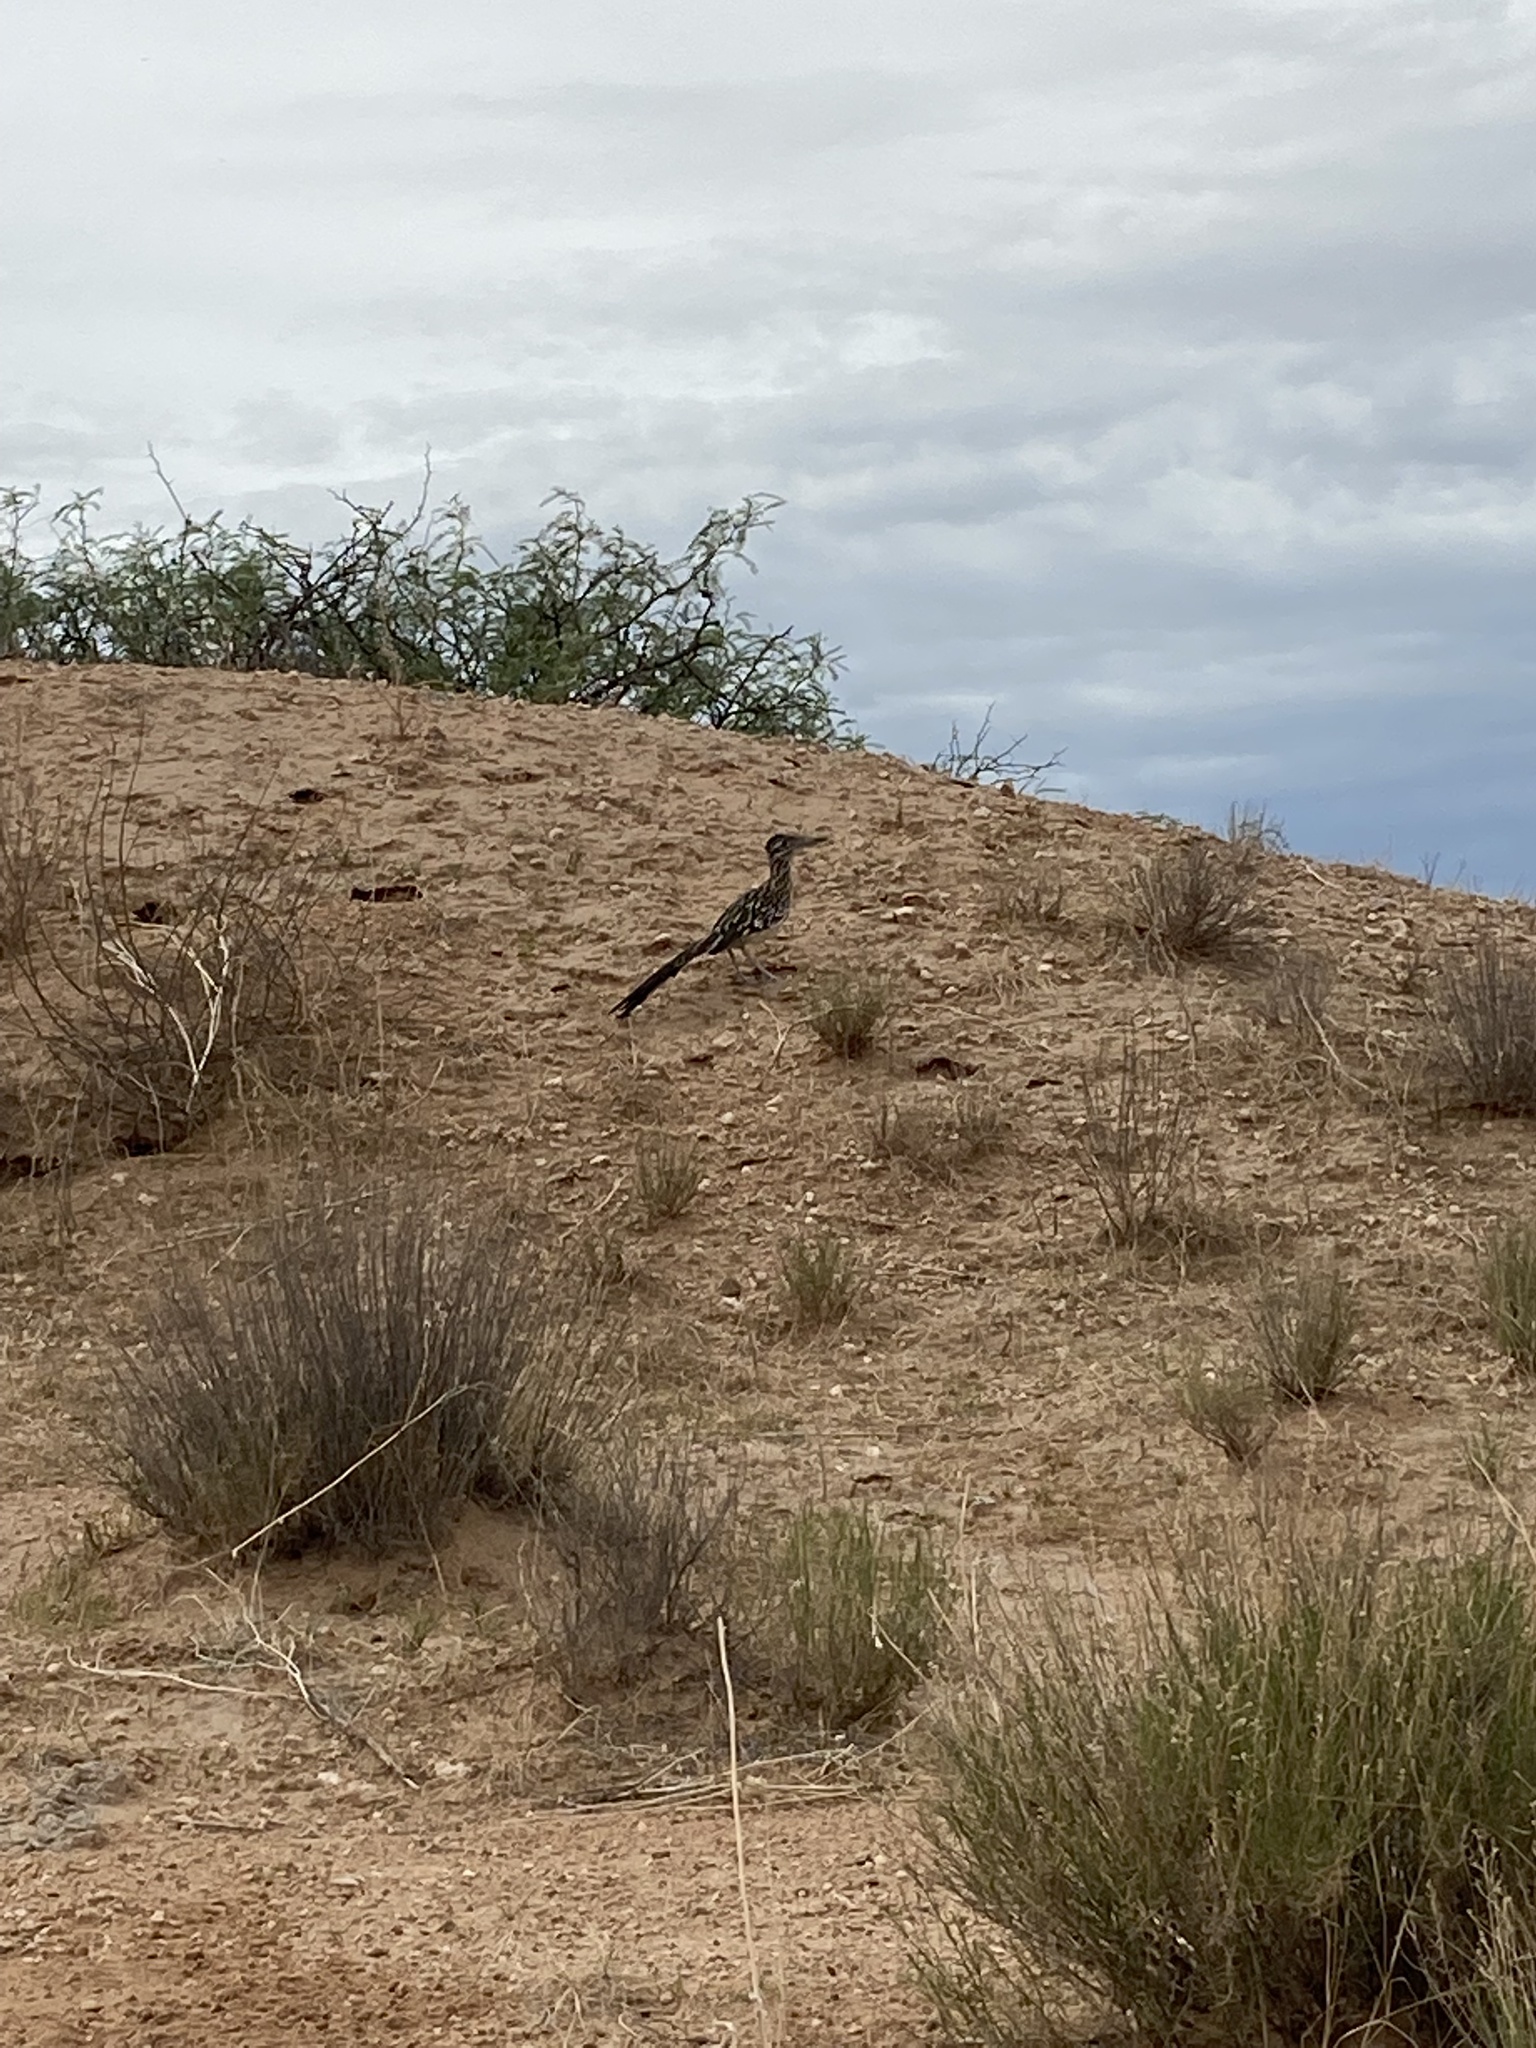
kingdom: Animalia
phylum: Chordata
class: Aves
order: Cuculiformes
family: Cuculidae
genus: Geococcyx
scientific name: Geococcyx californianus
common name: Greater roadrunner
